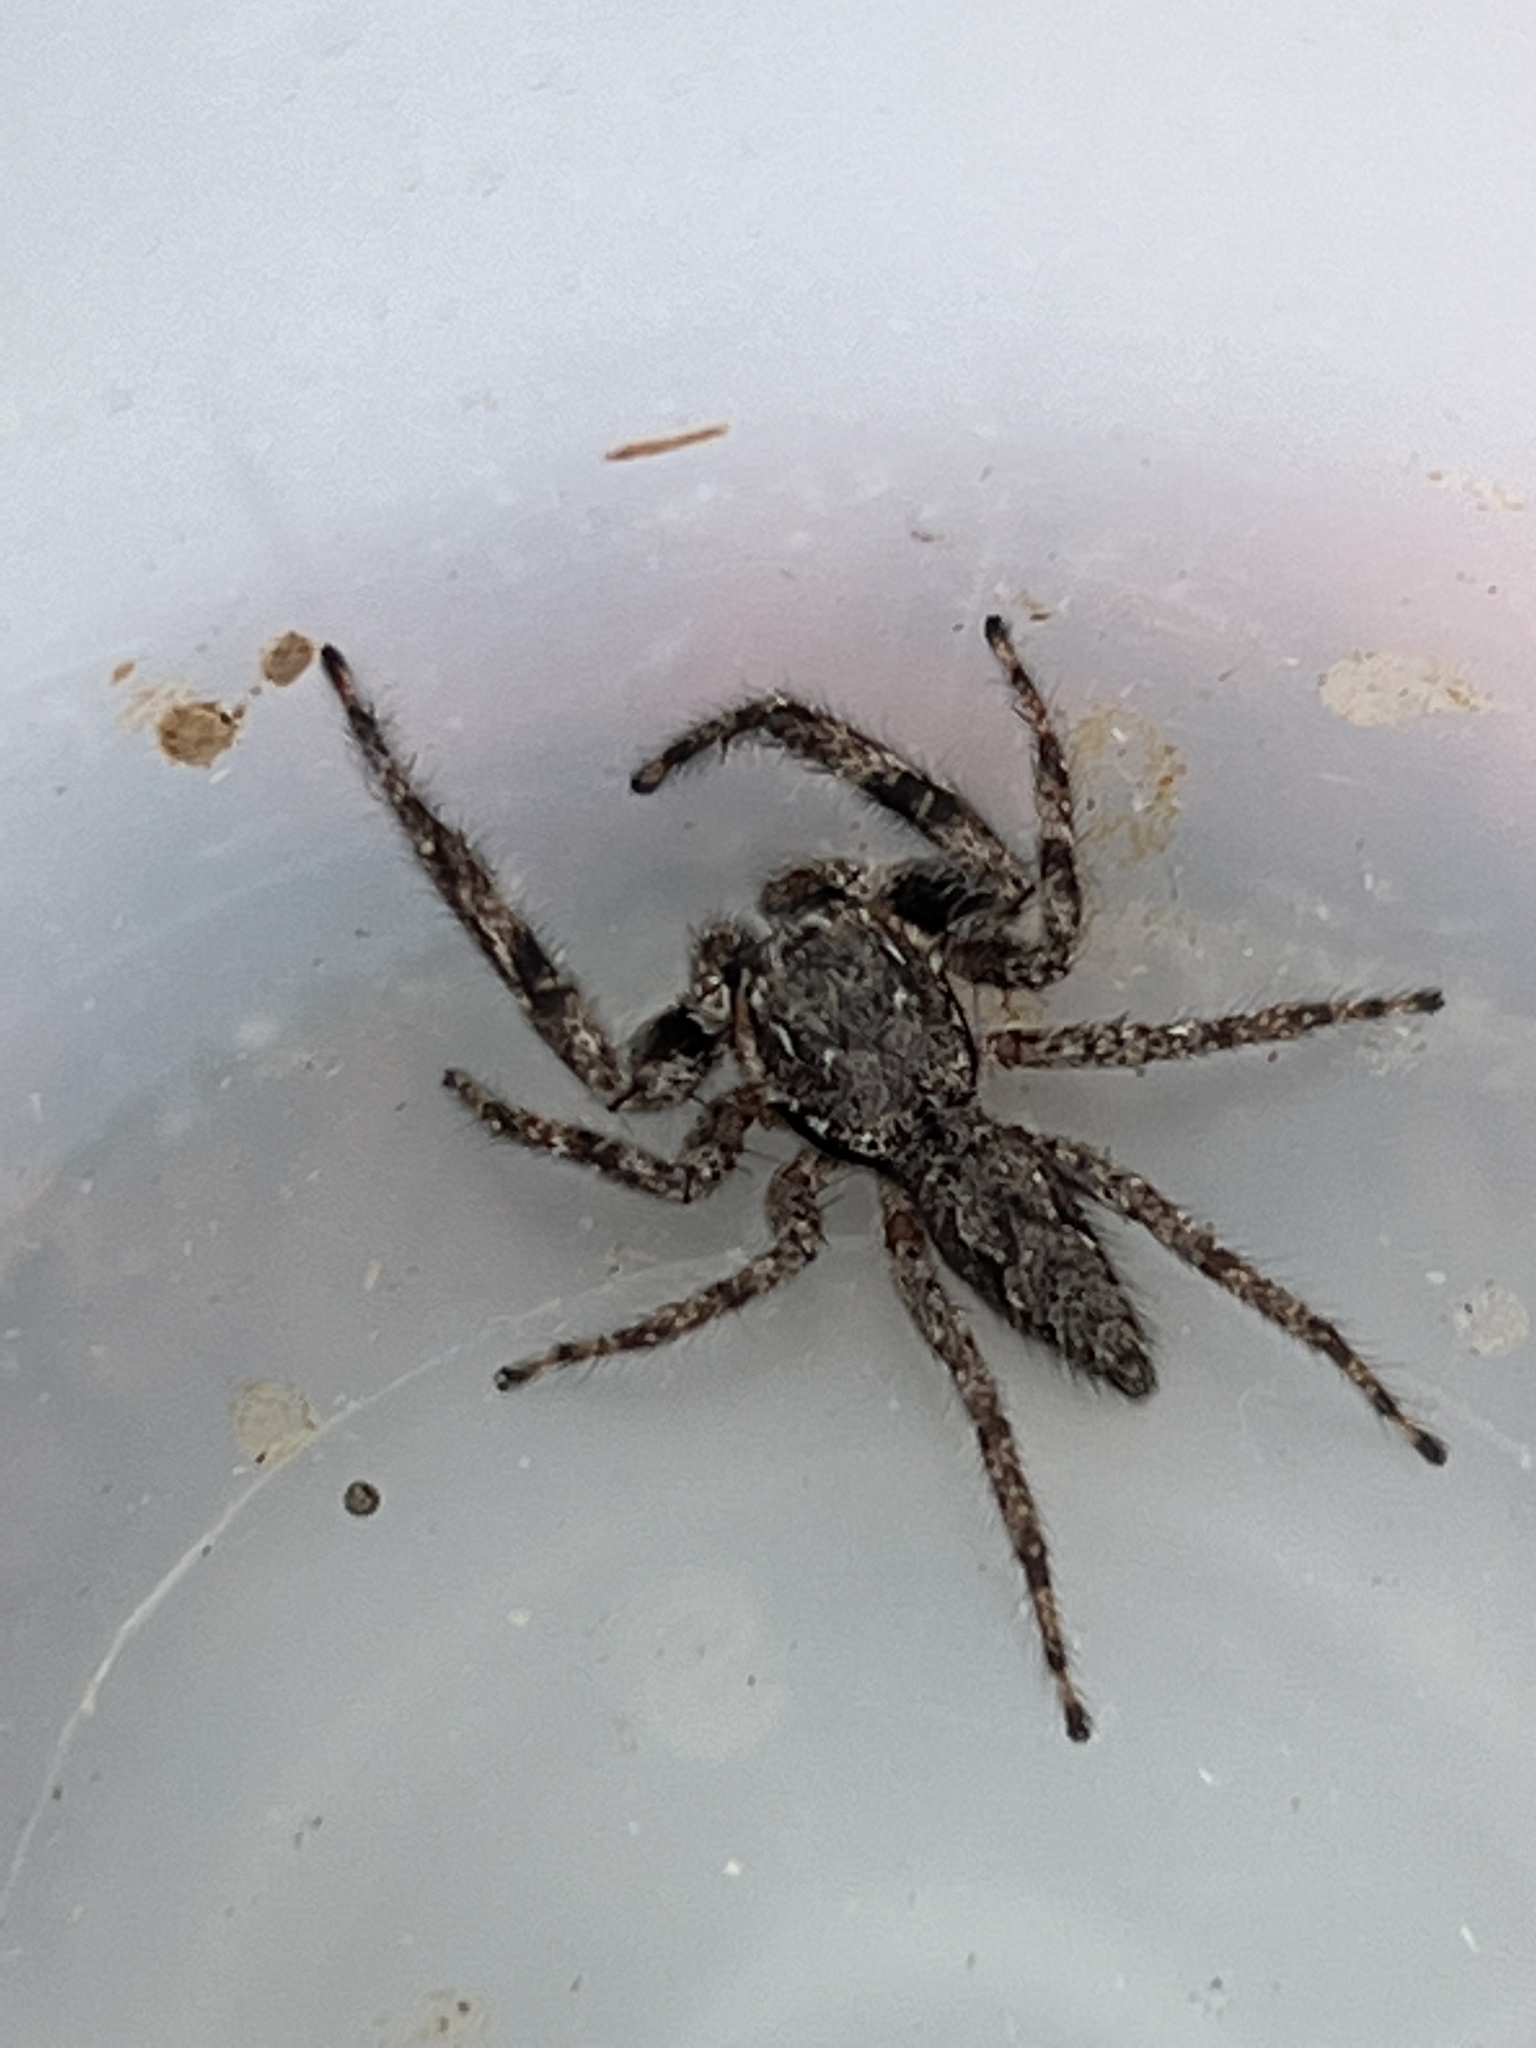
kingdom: Animalia
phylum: Arthropoda
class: Arachnida
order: Araneae
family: Salticidae
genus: Platycryptus
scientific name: Platycryptus undatus
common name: Tan jumping spider
